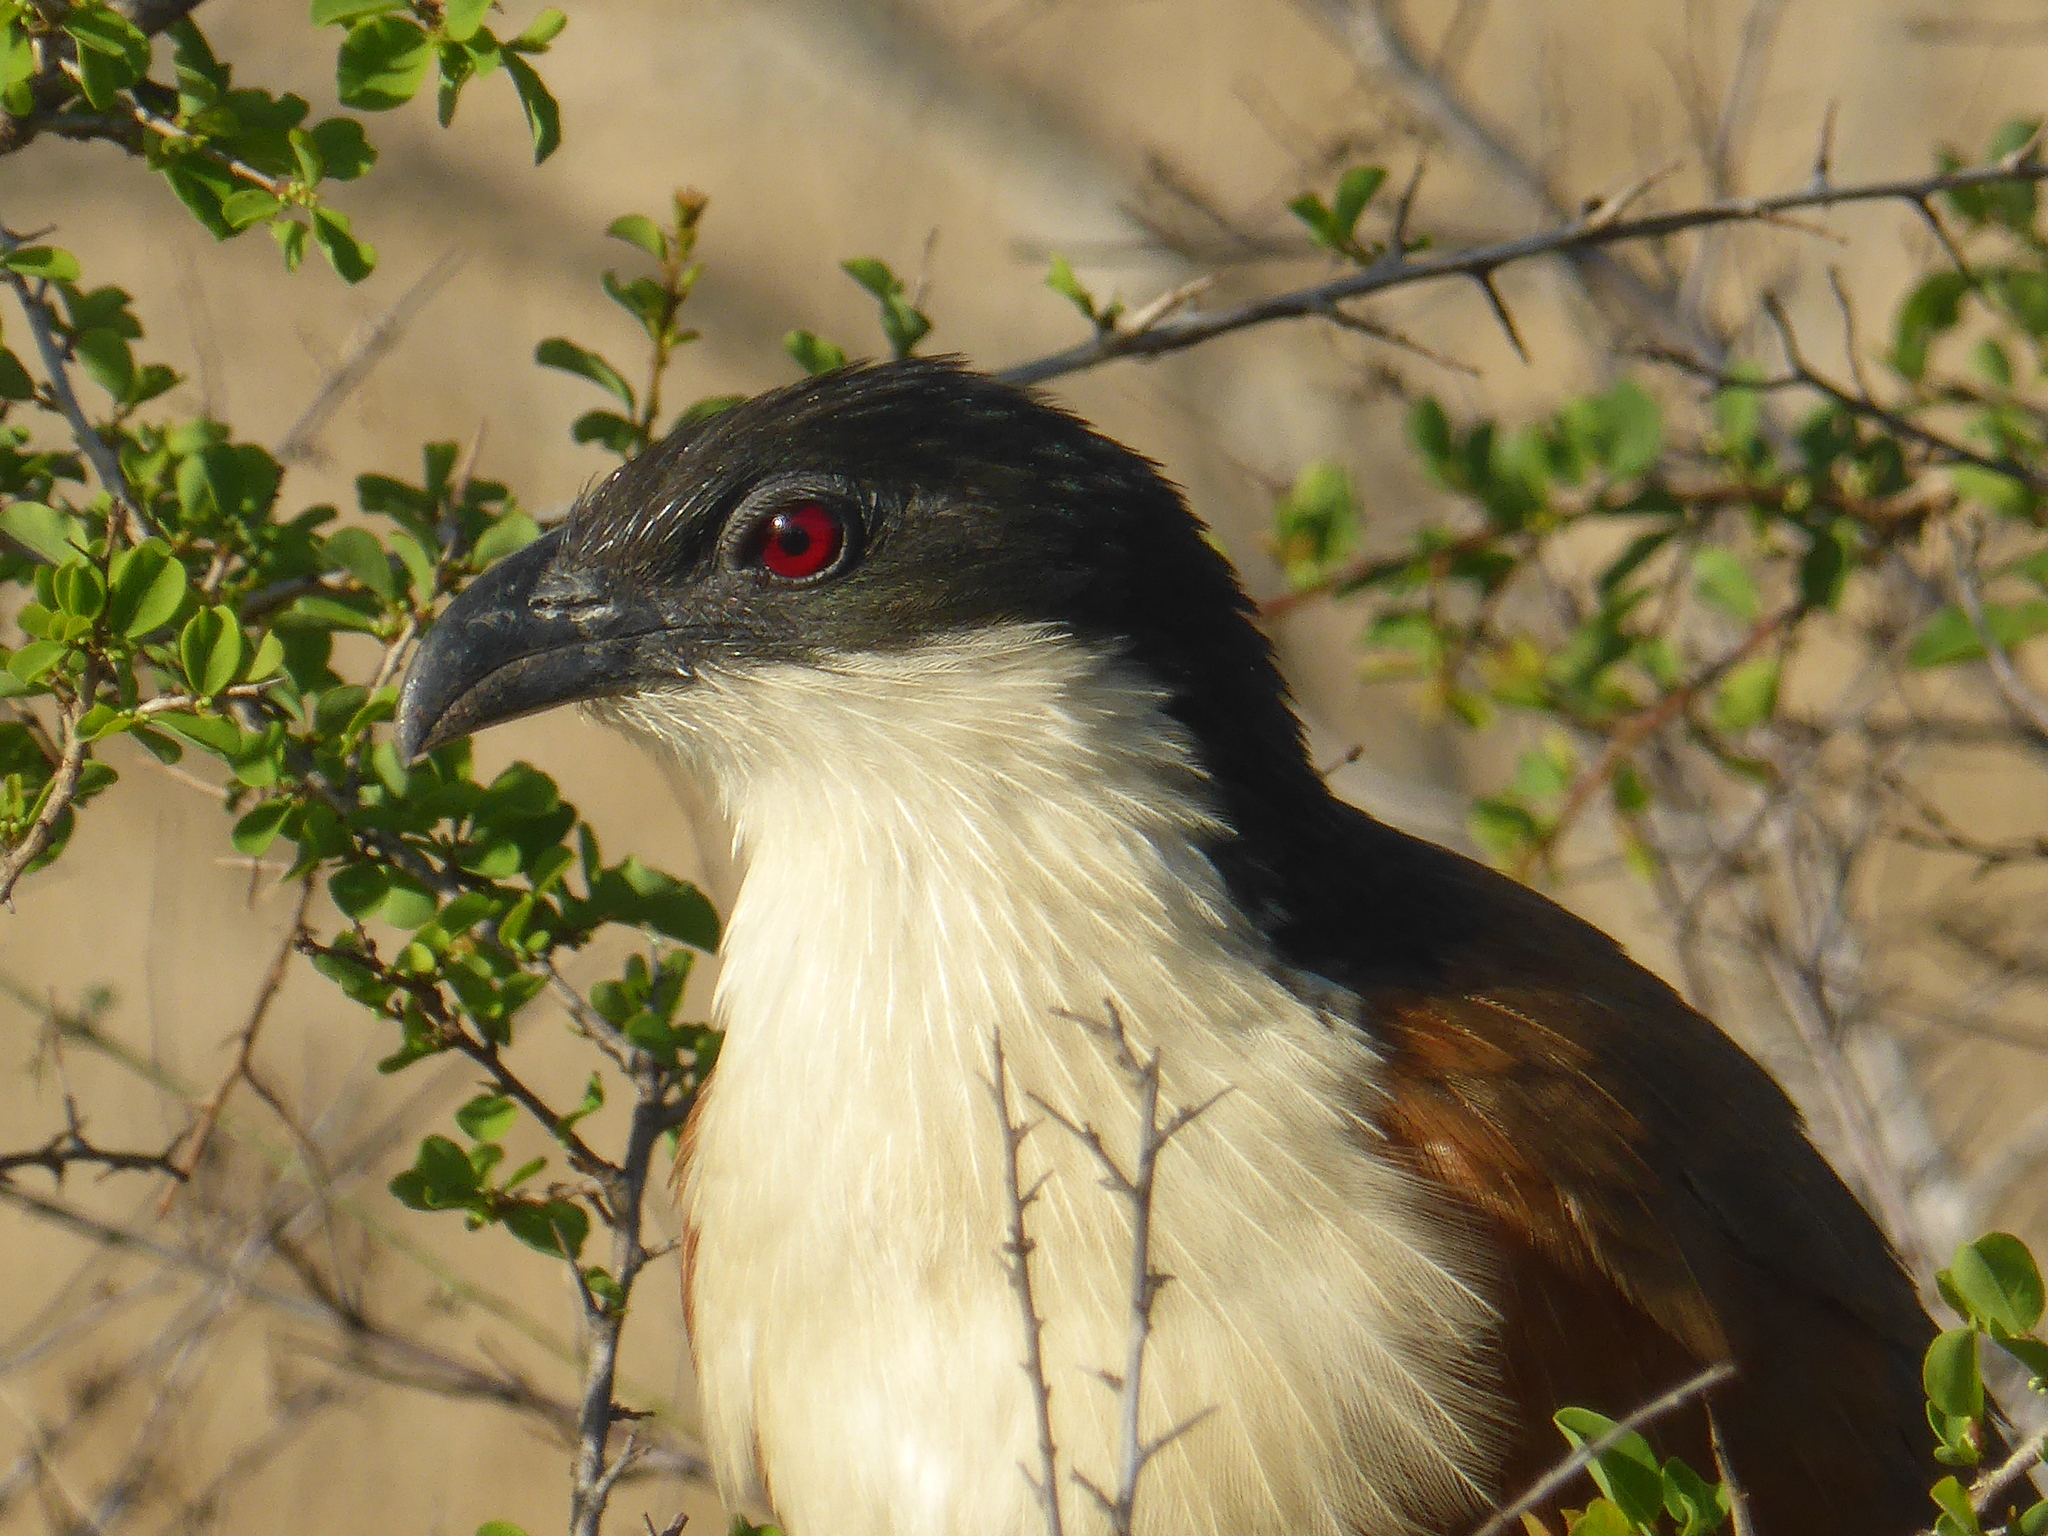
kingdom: Animalia
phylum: Chordata
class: Aves
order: Cuculiformes
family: Cuculidae
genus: Centropus
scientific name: Centropus superciliosus
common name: White-browed coucal
